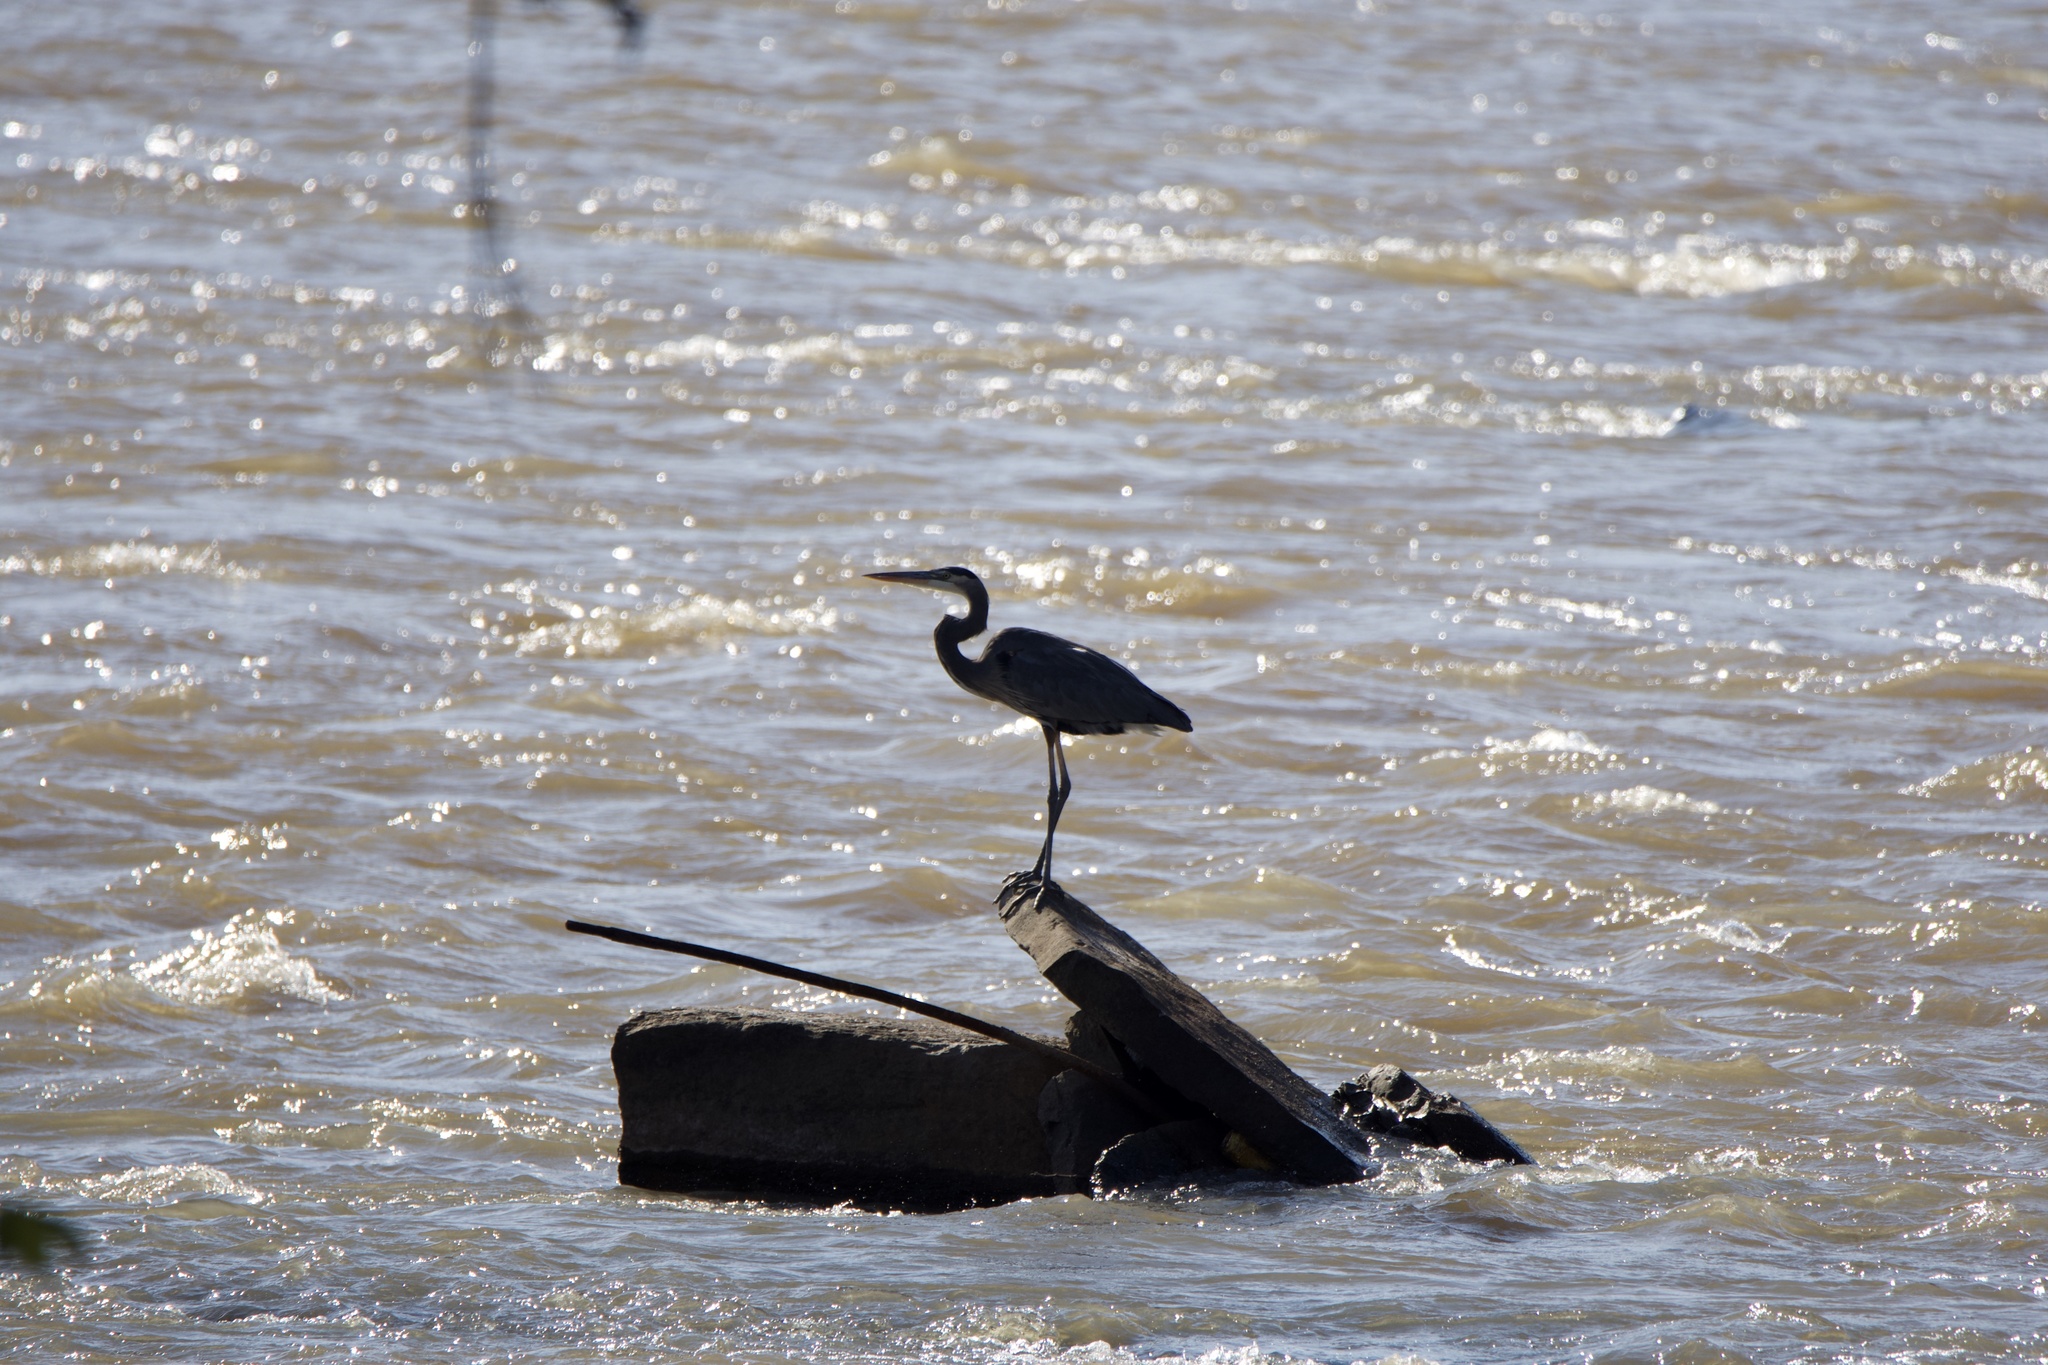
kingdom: Animalia
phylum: Chordata
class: Aves
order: Pelecaniformes
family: Ardeidae
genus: Ardea
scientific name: Ardea herodias
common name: Great blue heron
